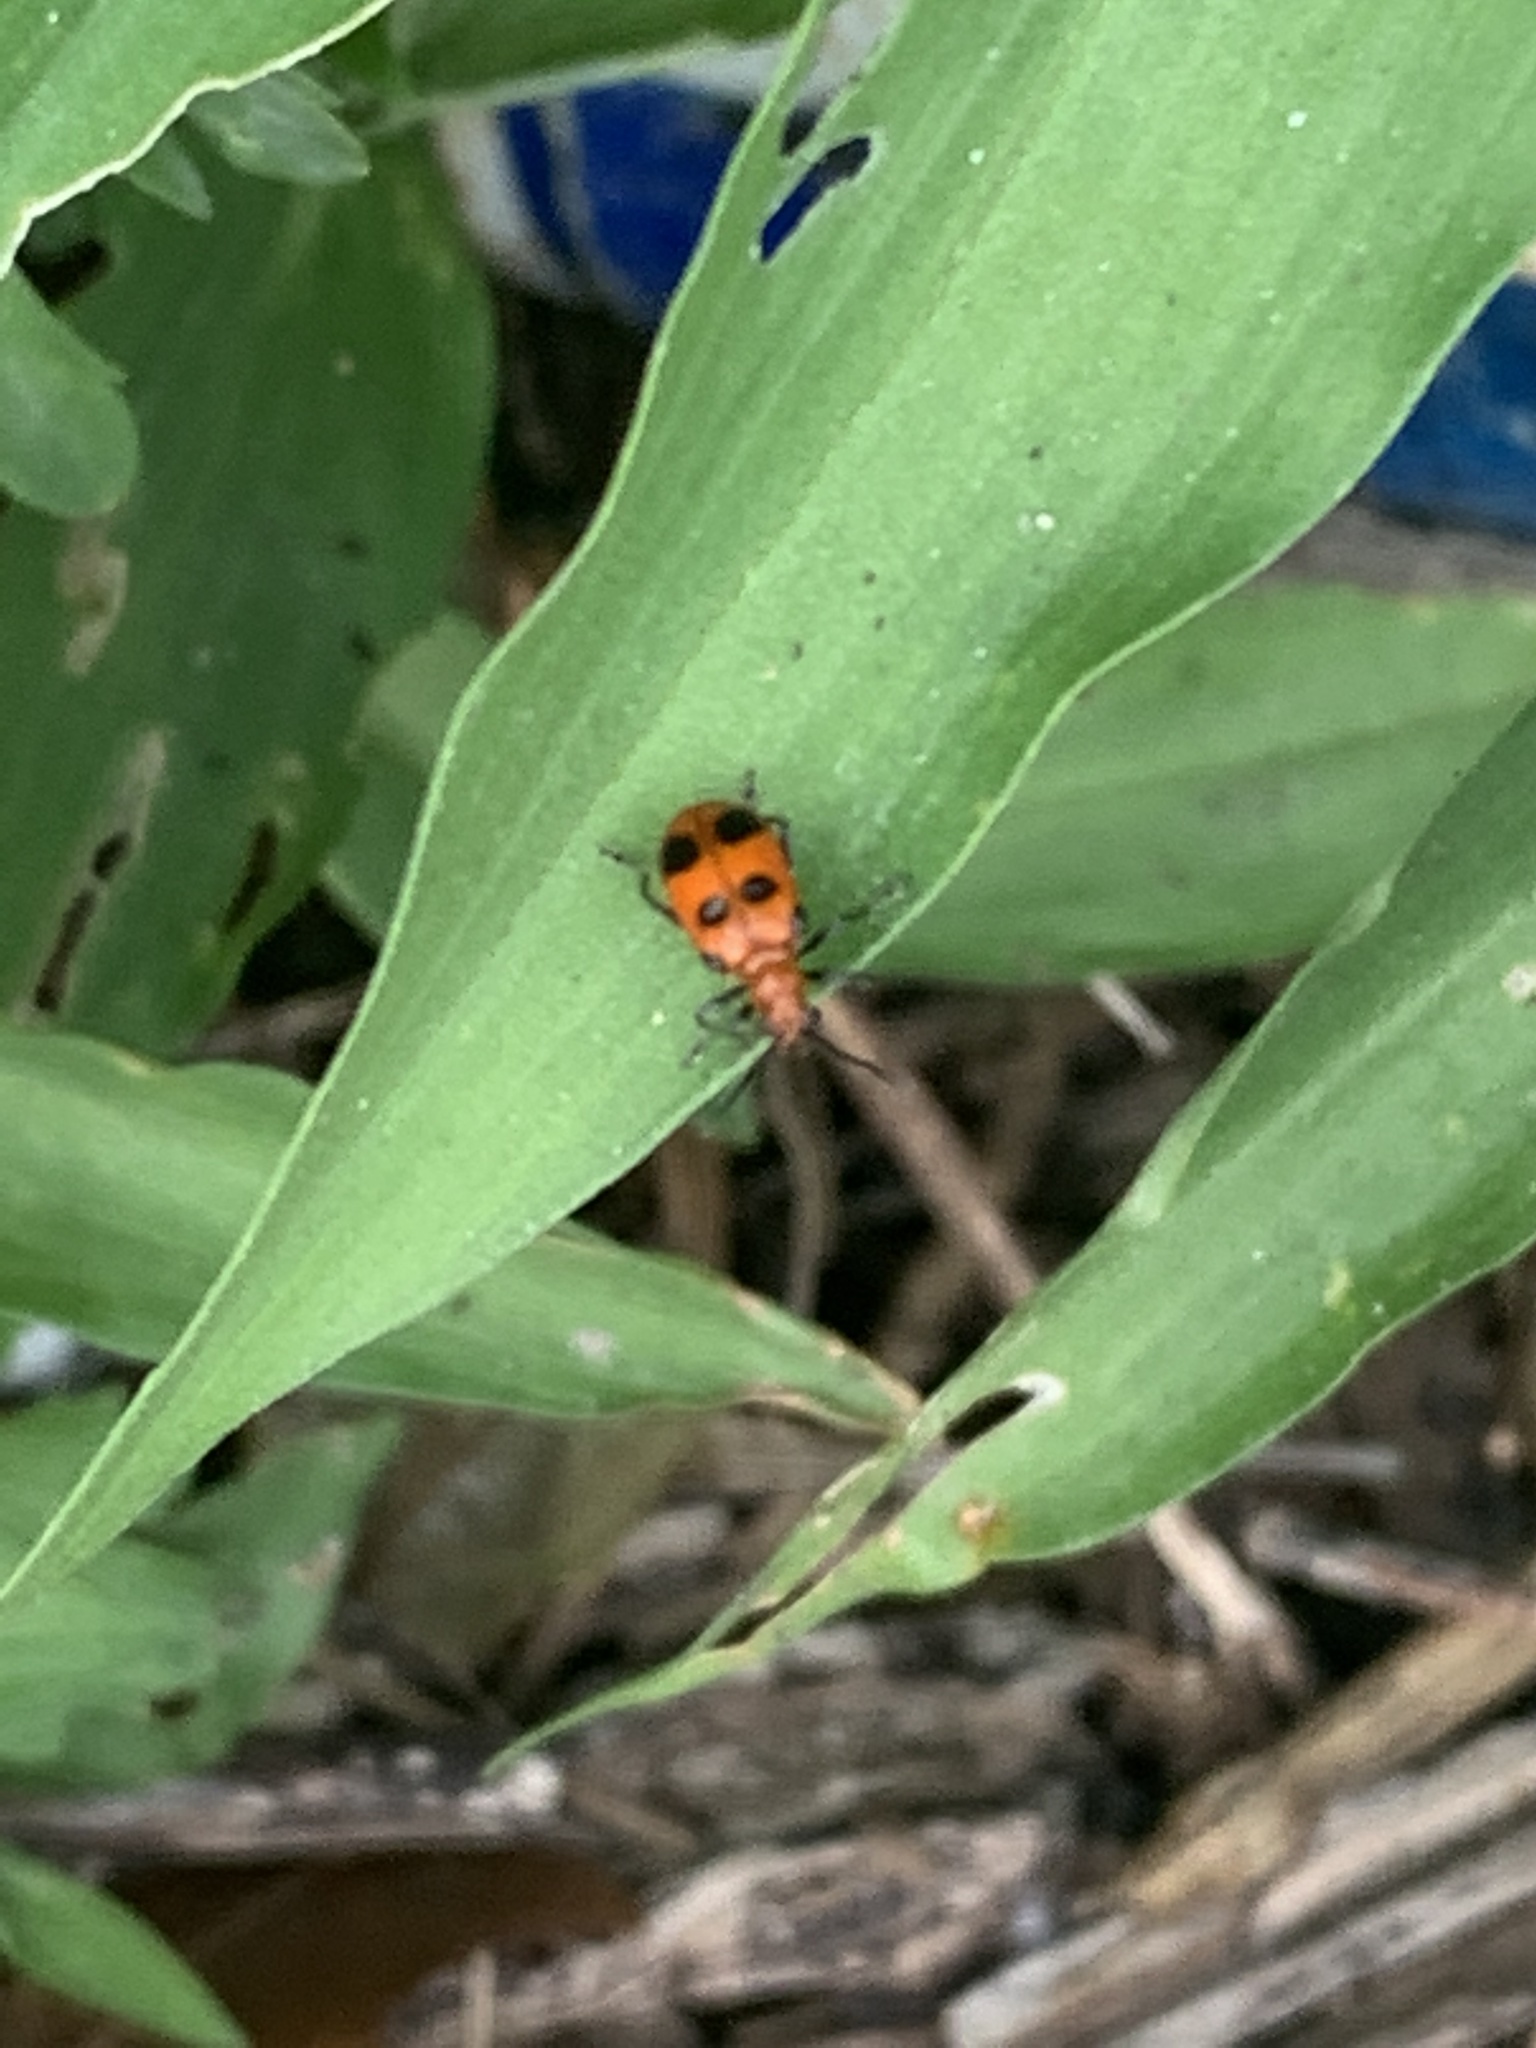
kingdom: Animalia
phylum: Arthropoda
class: Insecta
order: Coleoptera
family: Chrysomelidae
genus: Neolema
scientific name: Neolema sexpunctata
